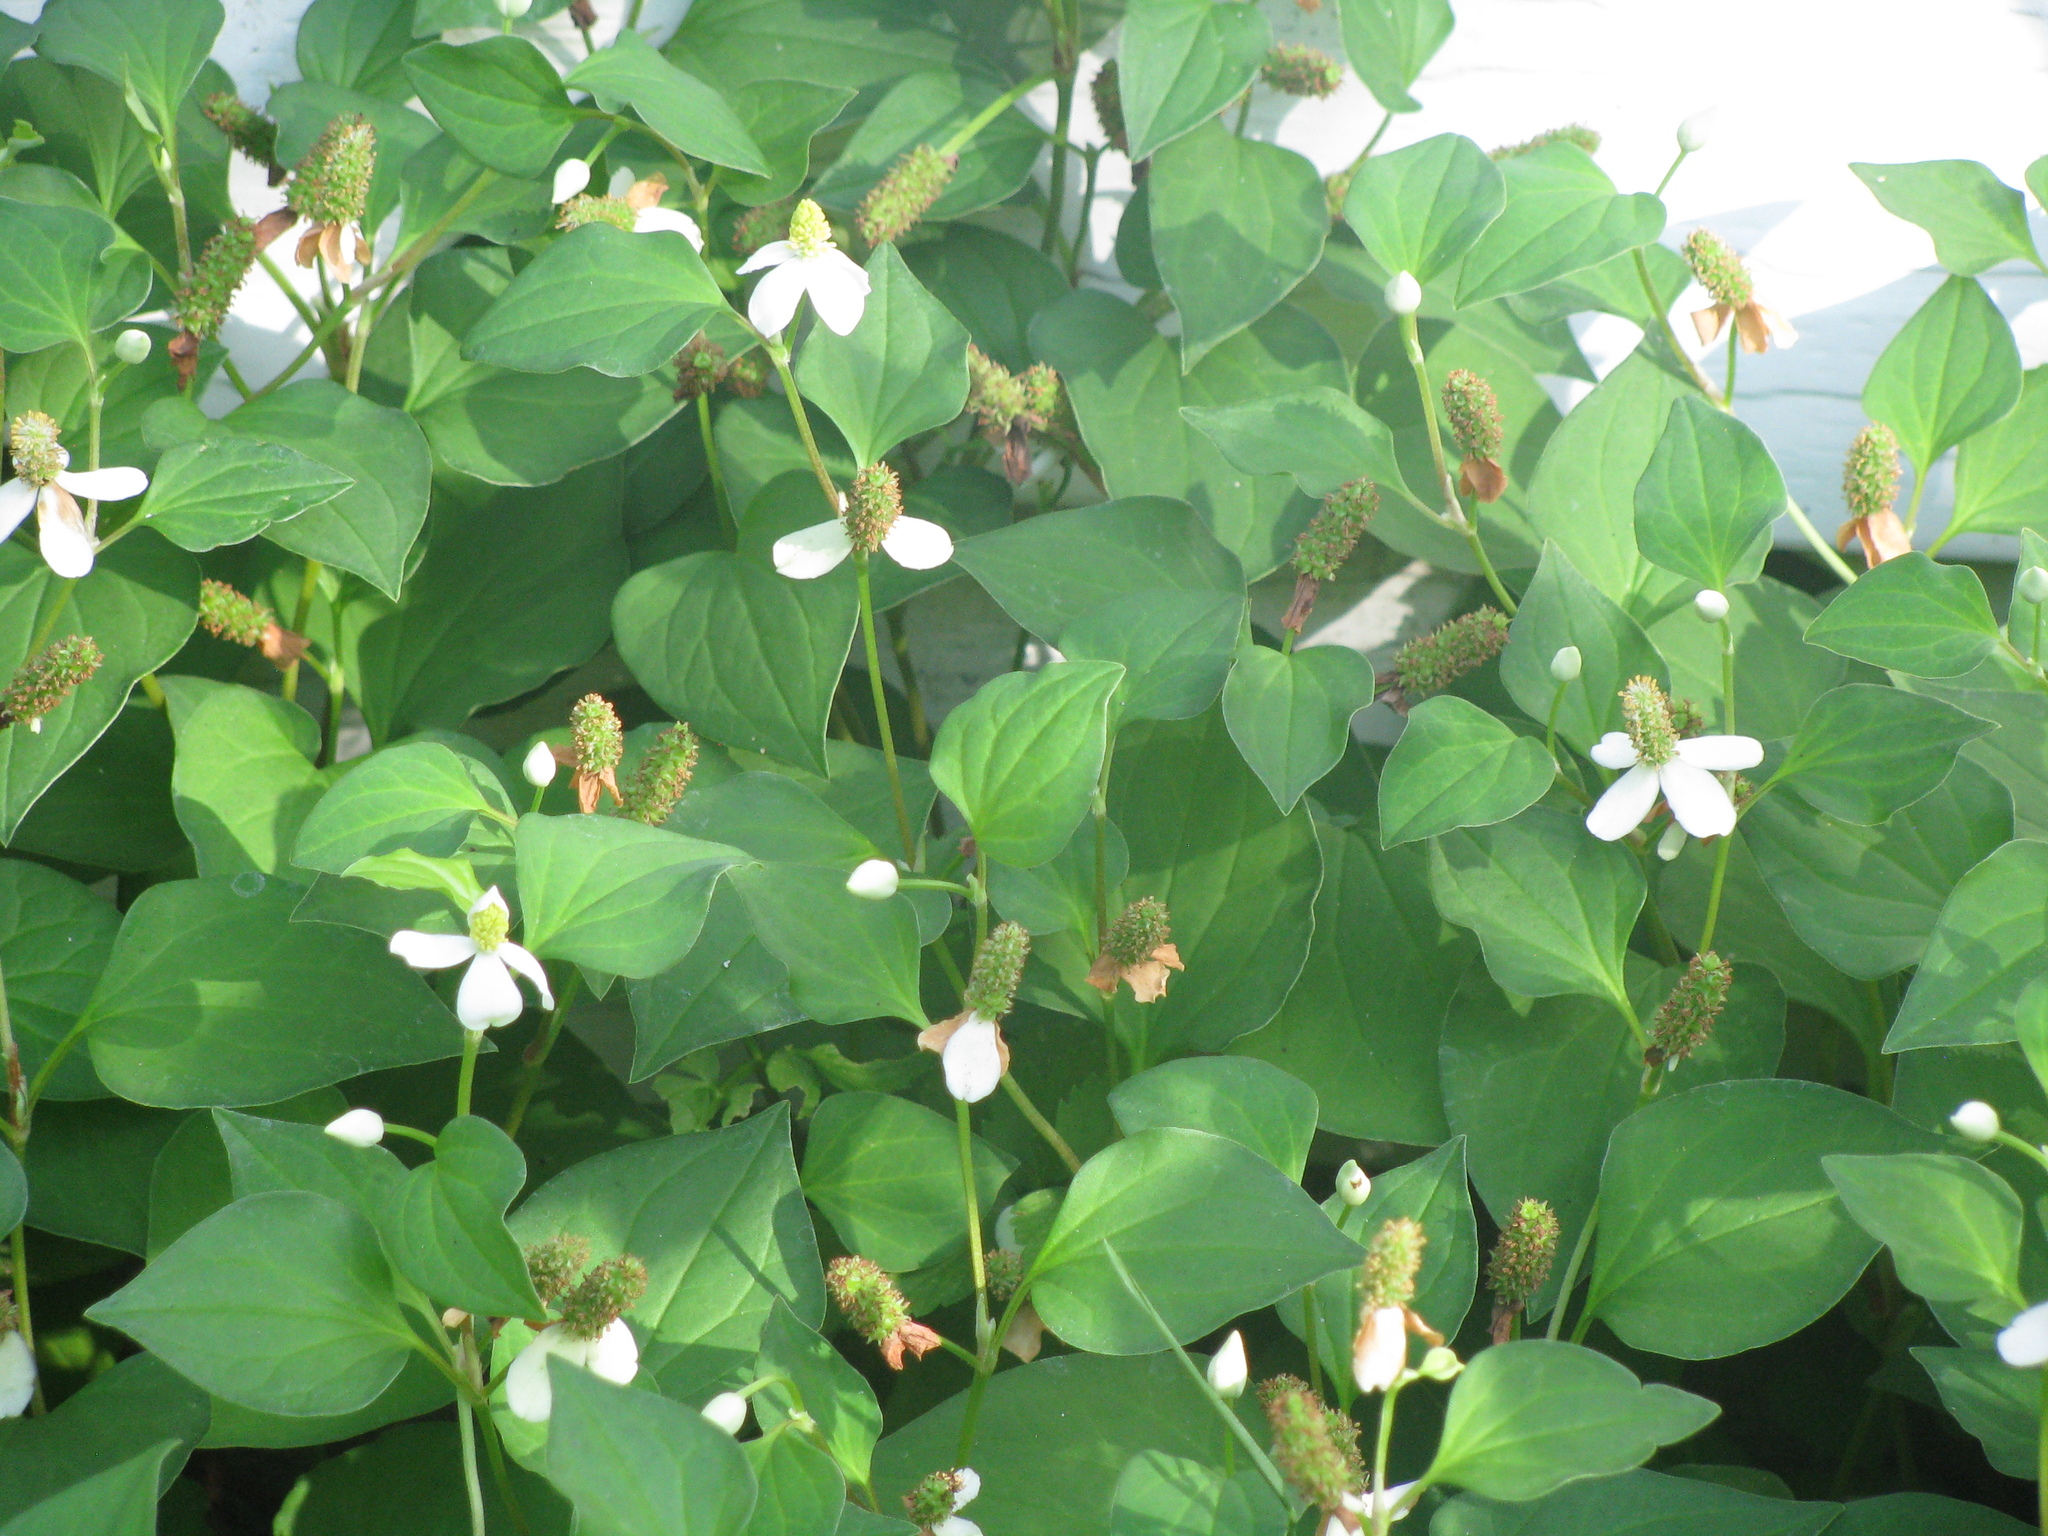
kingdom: Plantae
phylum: Tracheophyta
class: Magnoliopsida
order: Piperales
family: Saururaceae
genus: Houttuynia
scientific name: Houttuynia cordata
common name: Chameleon
